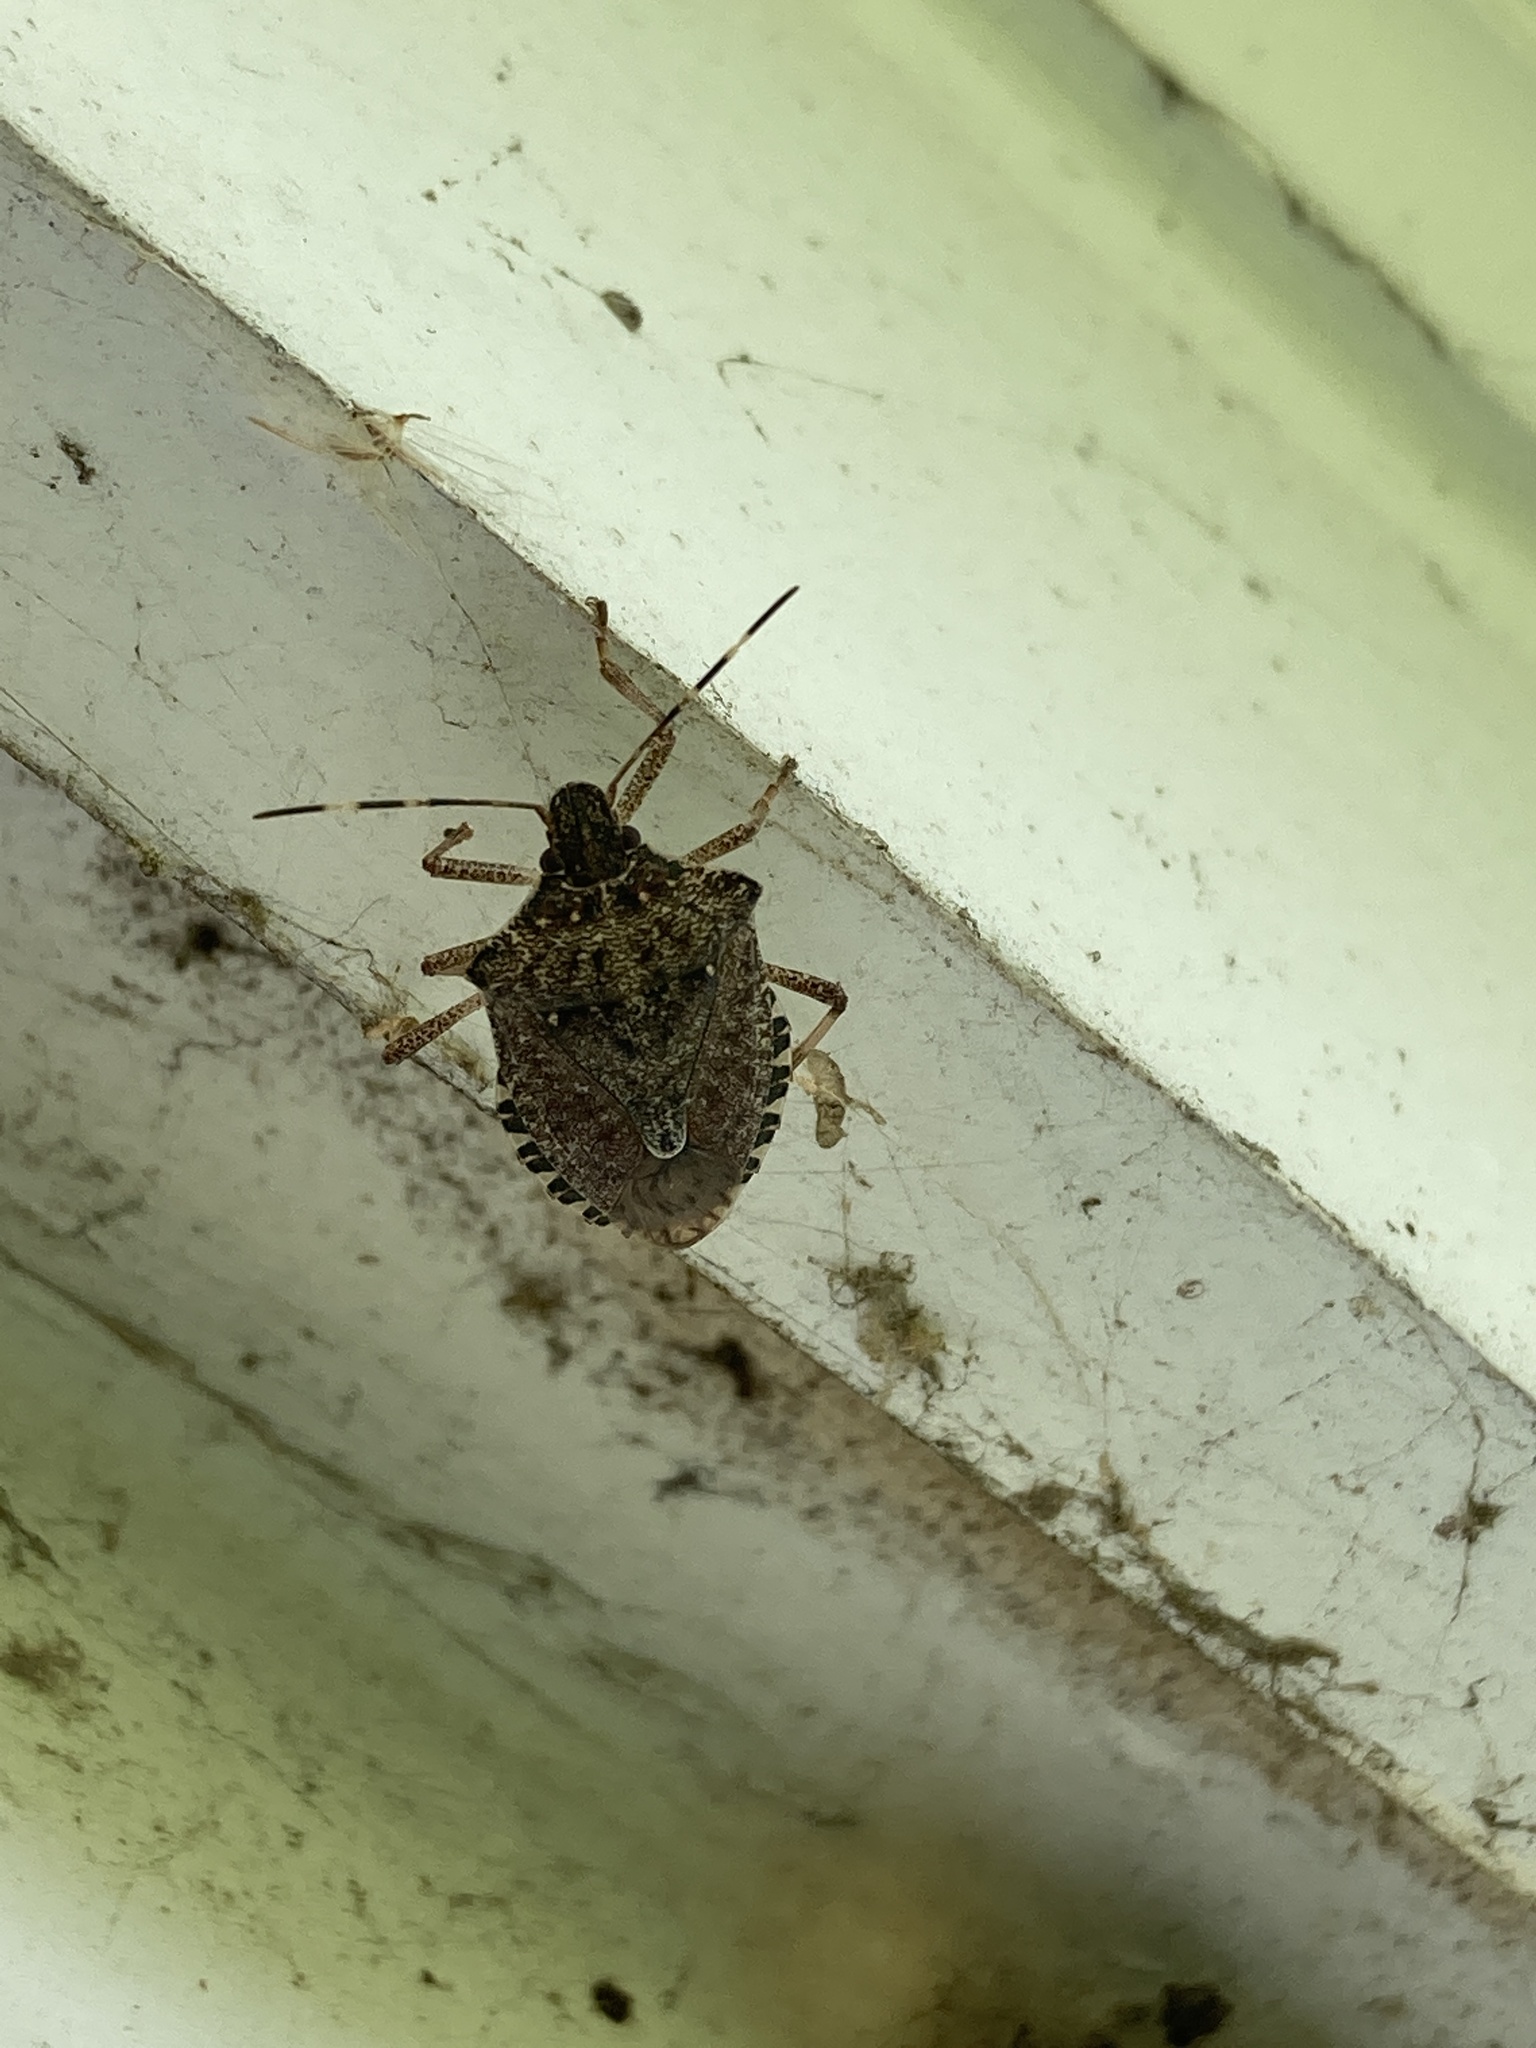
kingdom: Animalia
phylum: Arthropoda
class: Insecta
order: Hemiptera
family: Pentatomidae
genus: Halyomorpha
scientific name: Halyomorpha halys
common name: Brown marmorated stink bug
